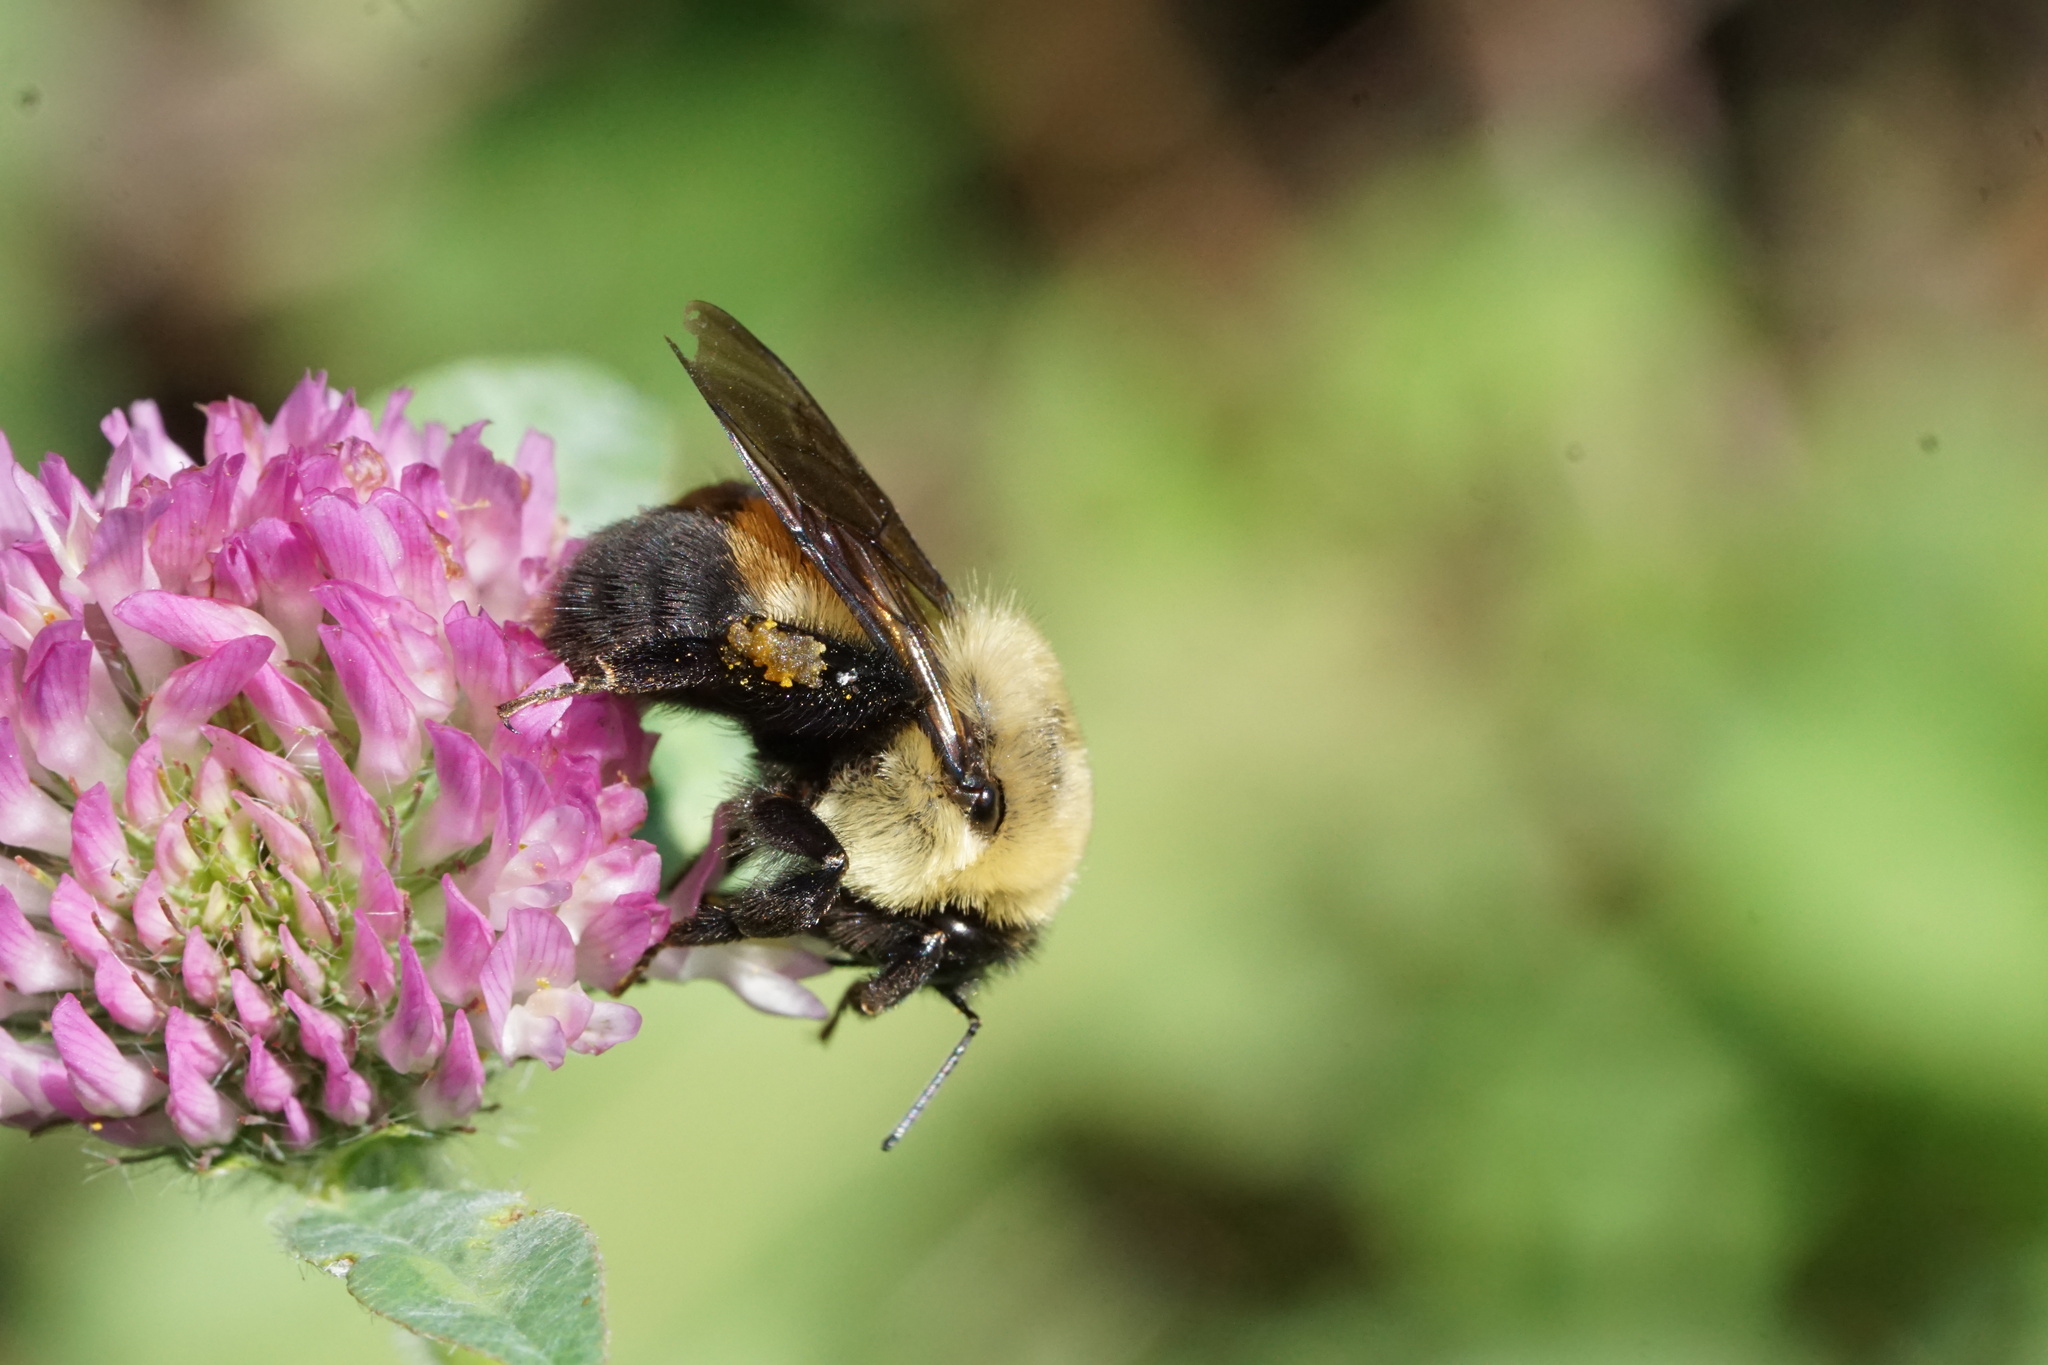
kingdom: Animalia
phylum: Arthropoda
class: Insecta
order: Hymenoptera
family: Apidae
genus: Bombus
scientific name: Bombus griseocollis
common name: Brown-belted bumble bee
